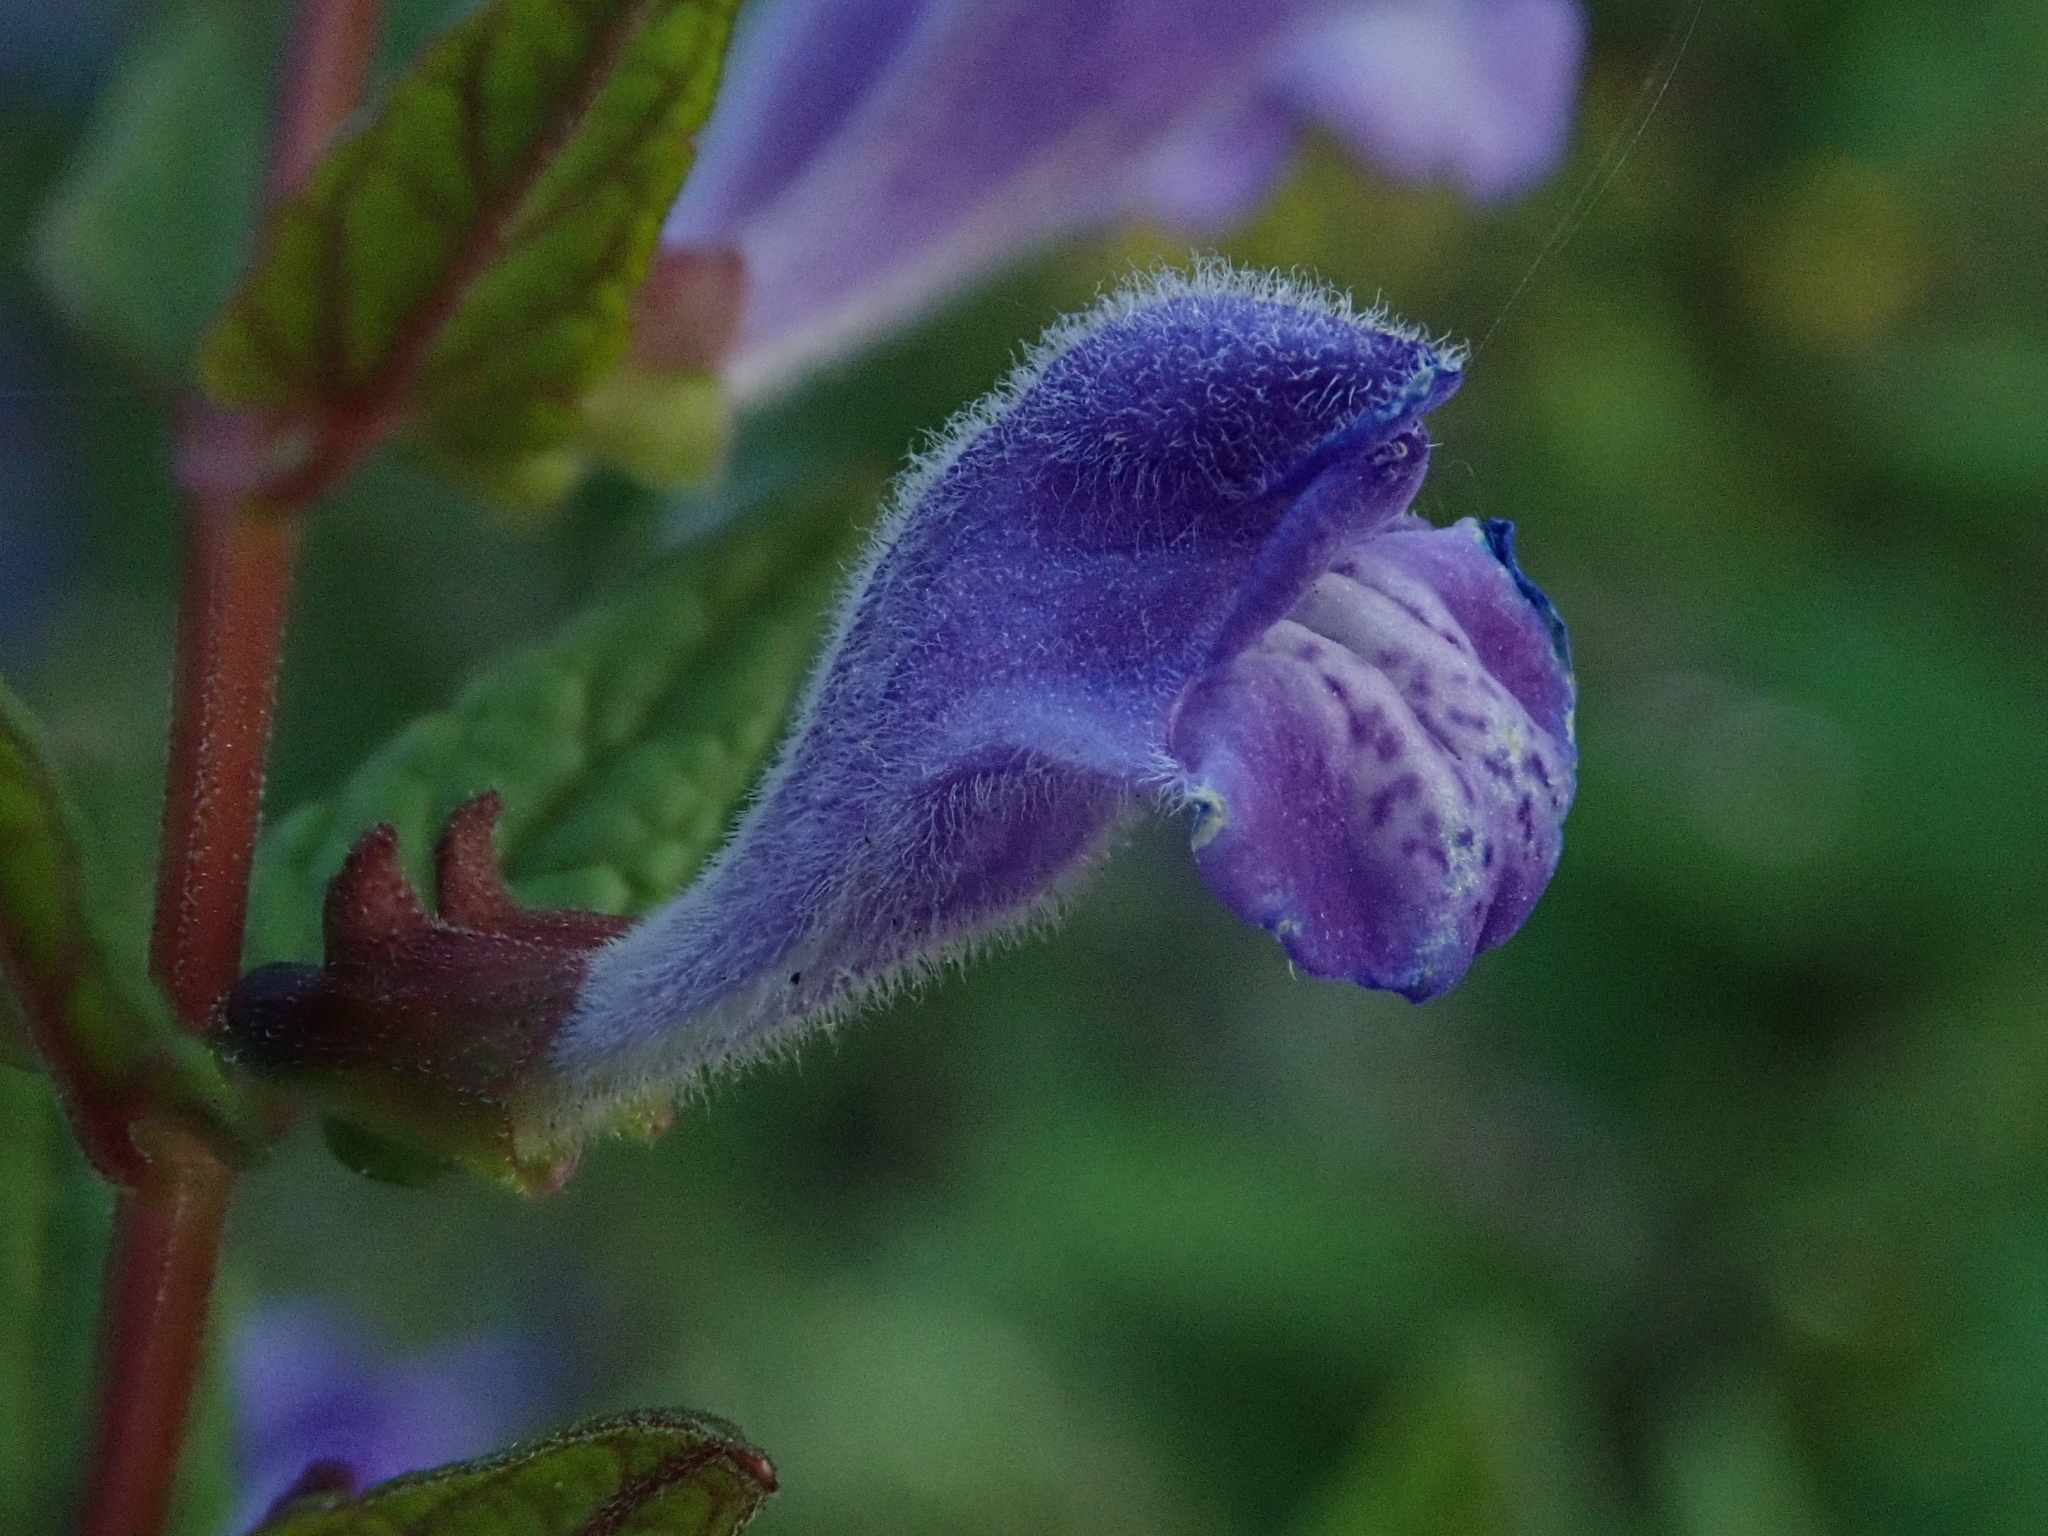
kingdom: Plantae
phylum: Tracheophyta
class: Magnoliopsida
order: Lamiales
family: Lamiaceae
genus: Scutellaria
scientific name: Scutellaria galericulata
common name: Skullcap
